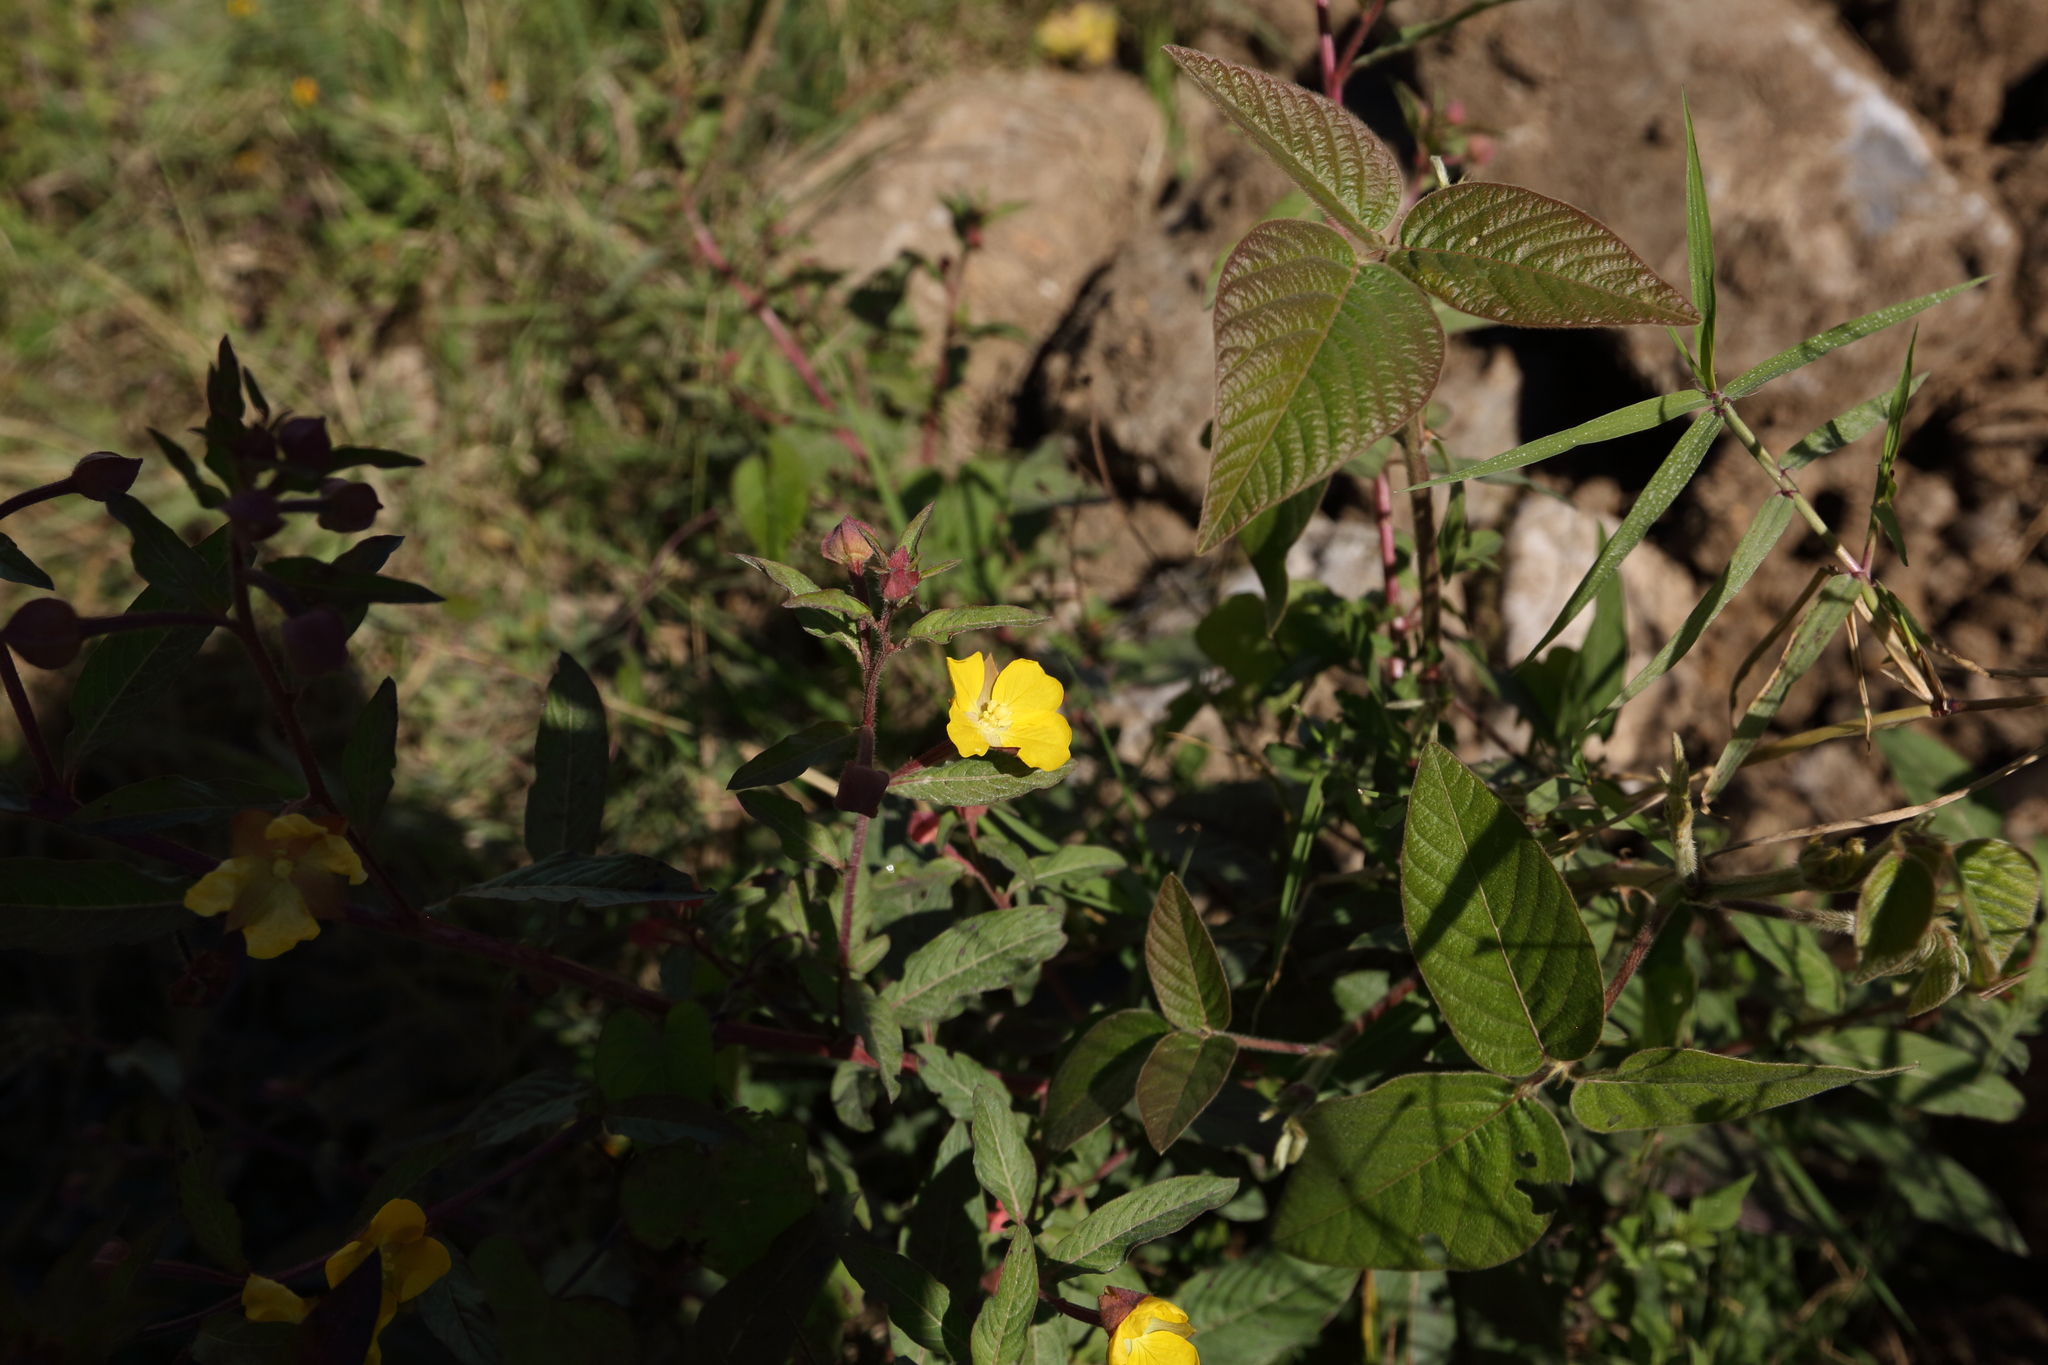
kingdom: Plantae
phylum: Tracheophyta
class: Magnoliopsida
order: Myrtales
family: Onagraceae
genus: Ludwigia
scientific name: Ludwigia octovalvis
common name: Water-primrose
